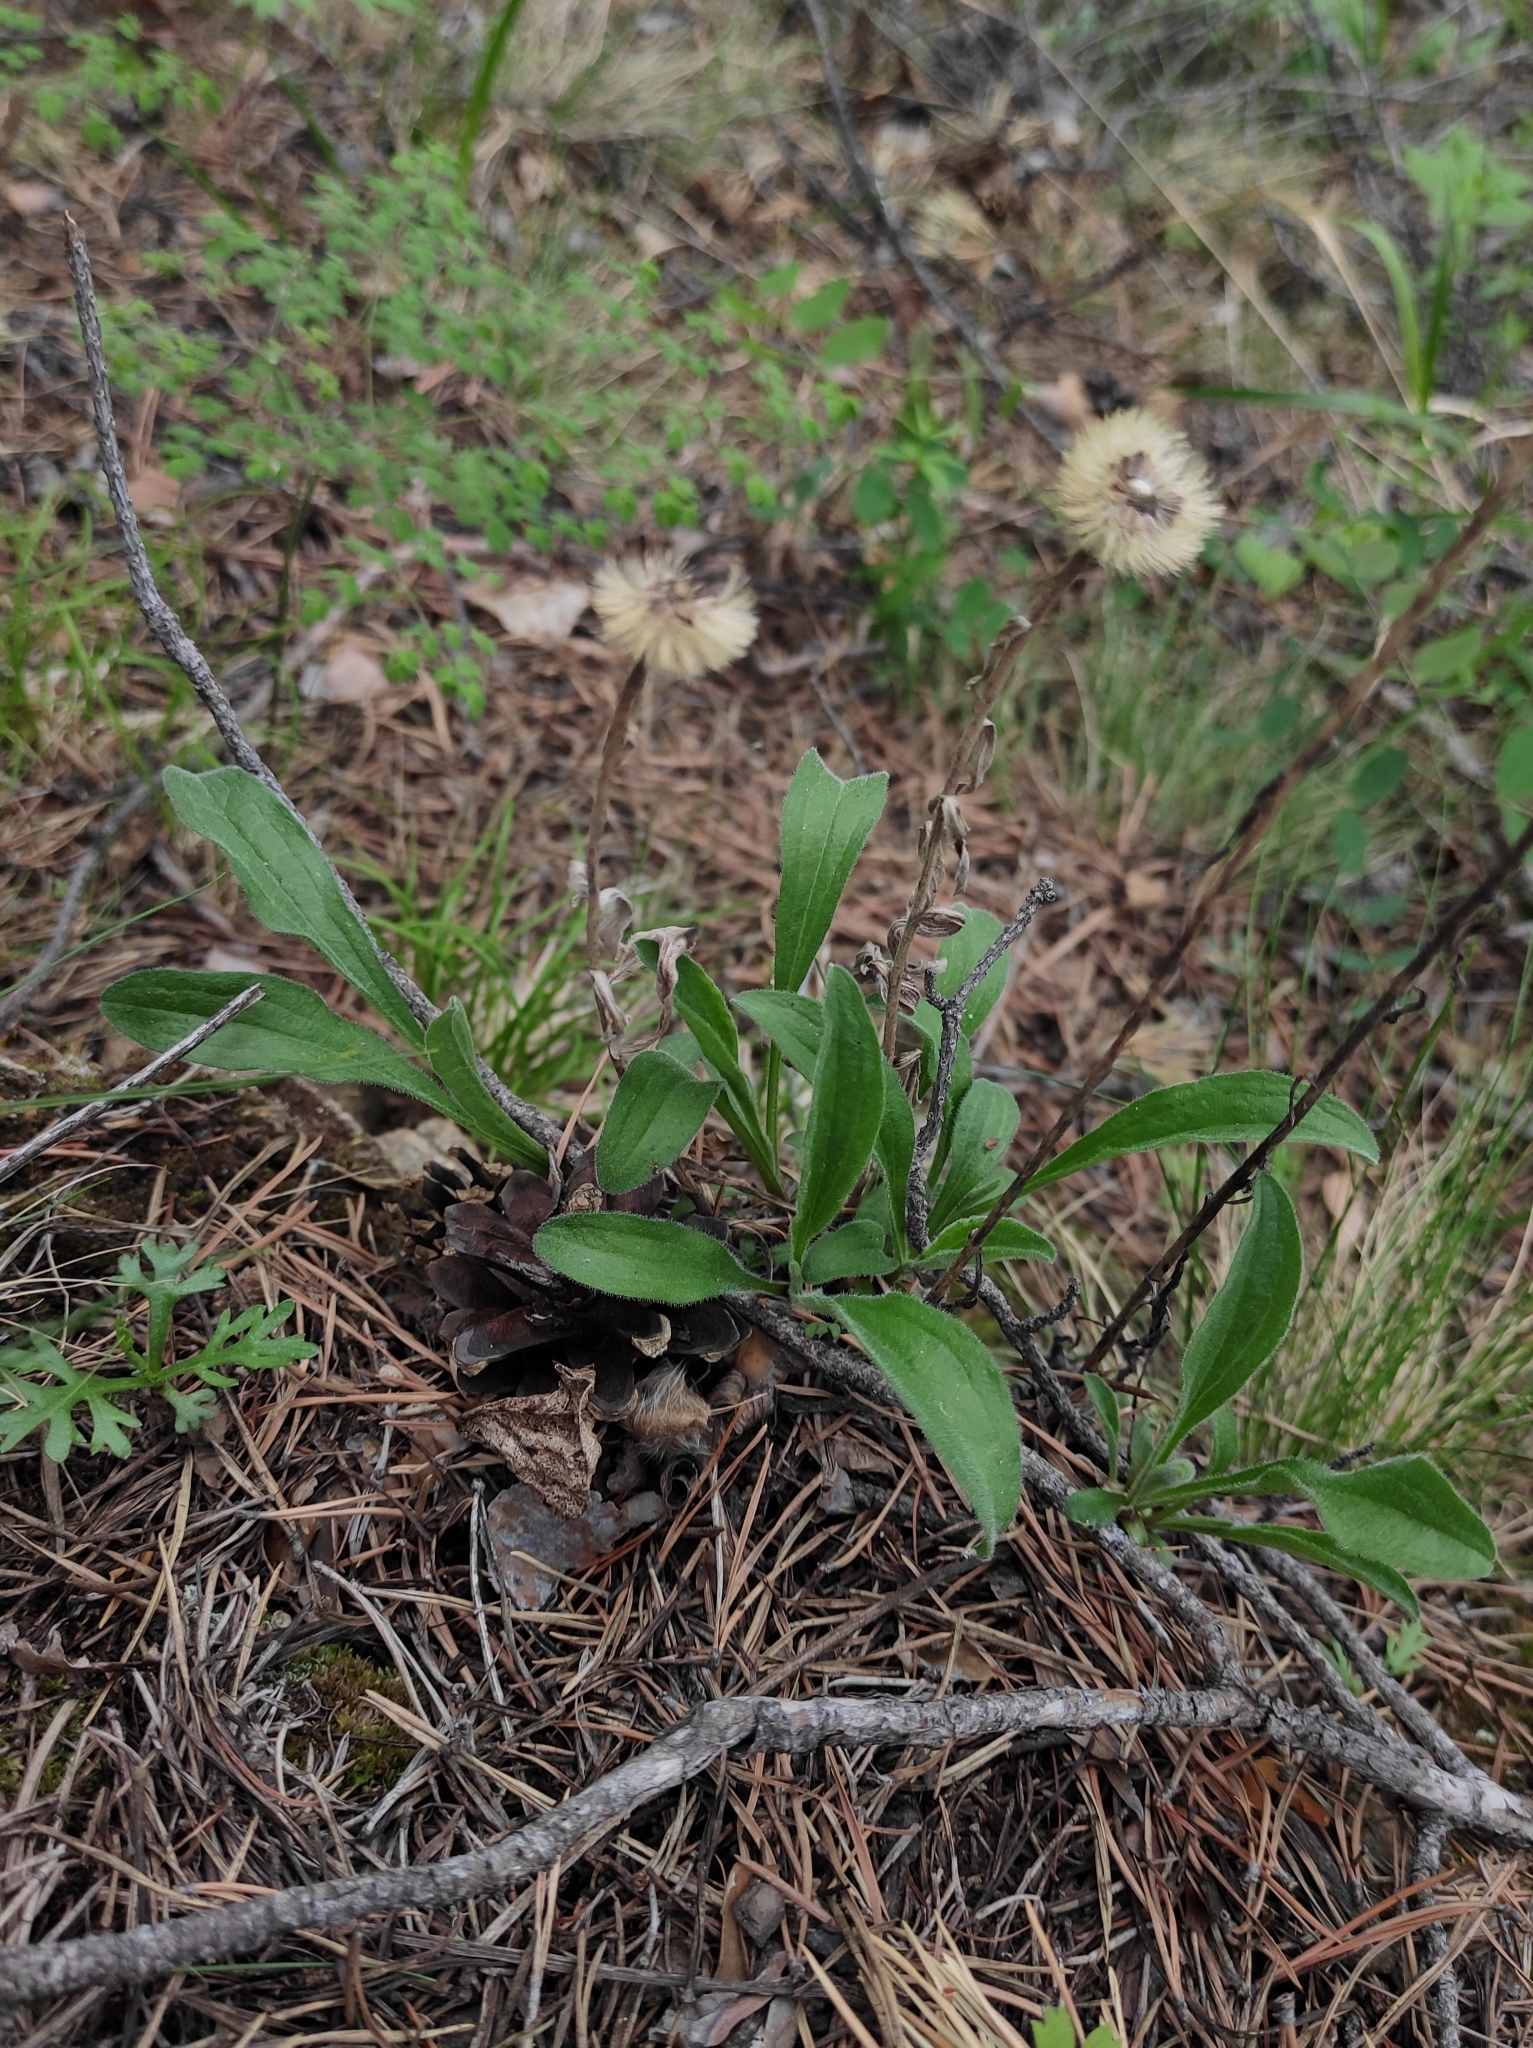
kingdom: Plantae
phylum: Tracheophyta
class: Magnoliopsida
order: Asterales
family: Asteraceae
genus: Aster
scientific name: Aster alpinus
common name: Alpine aster
